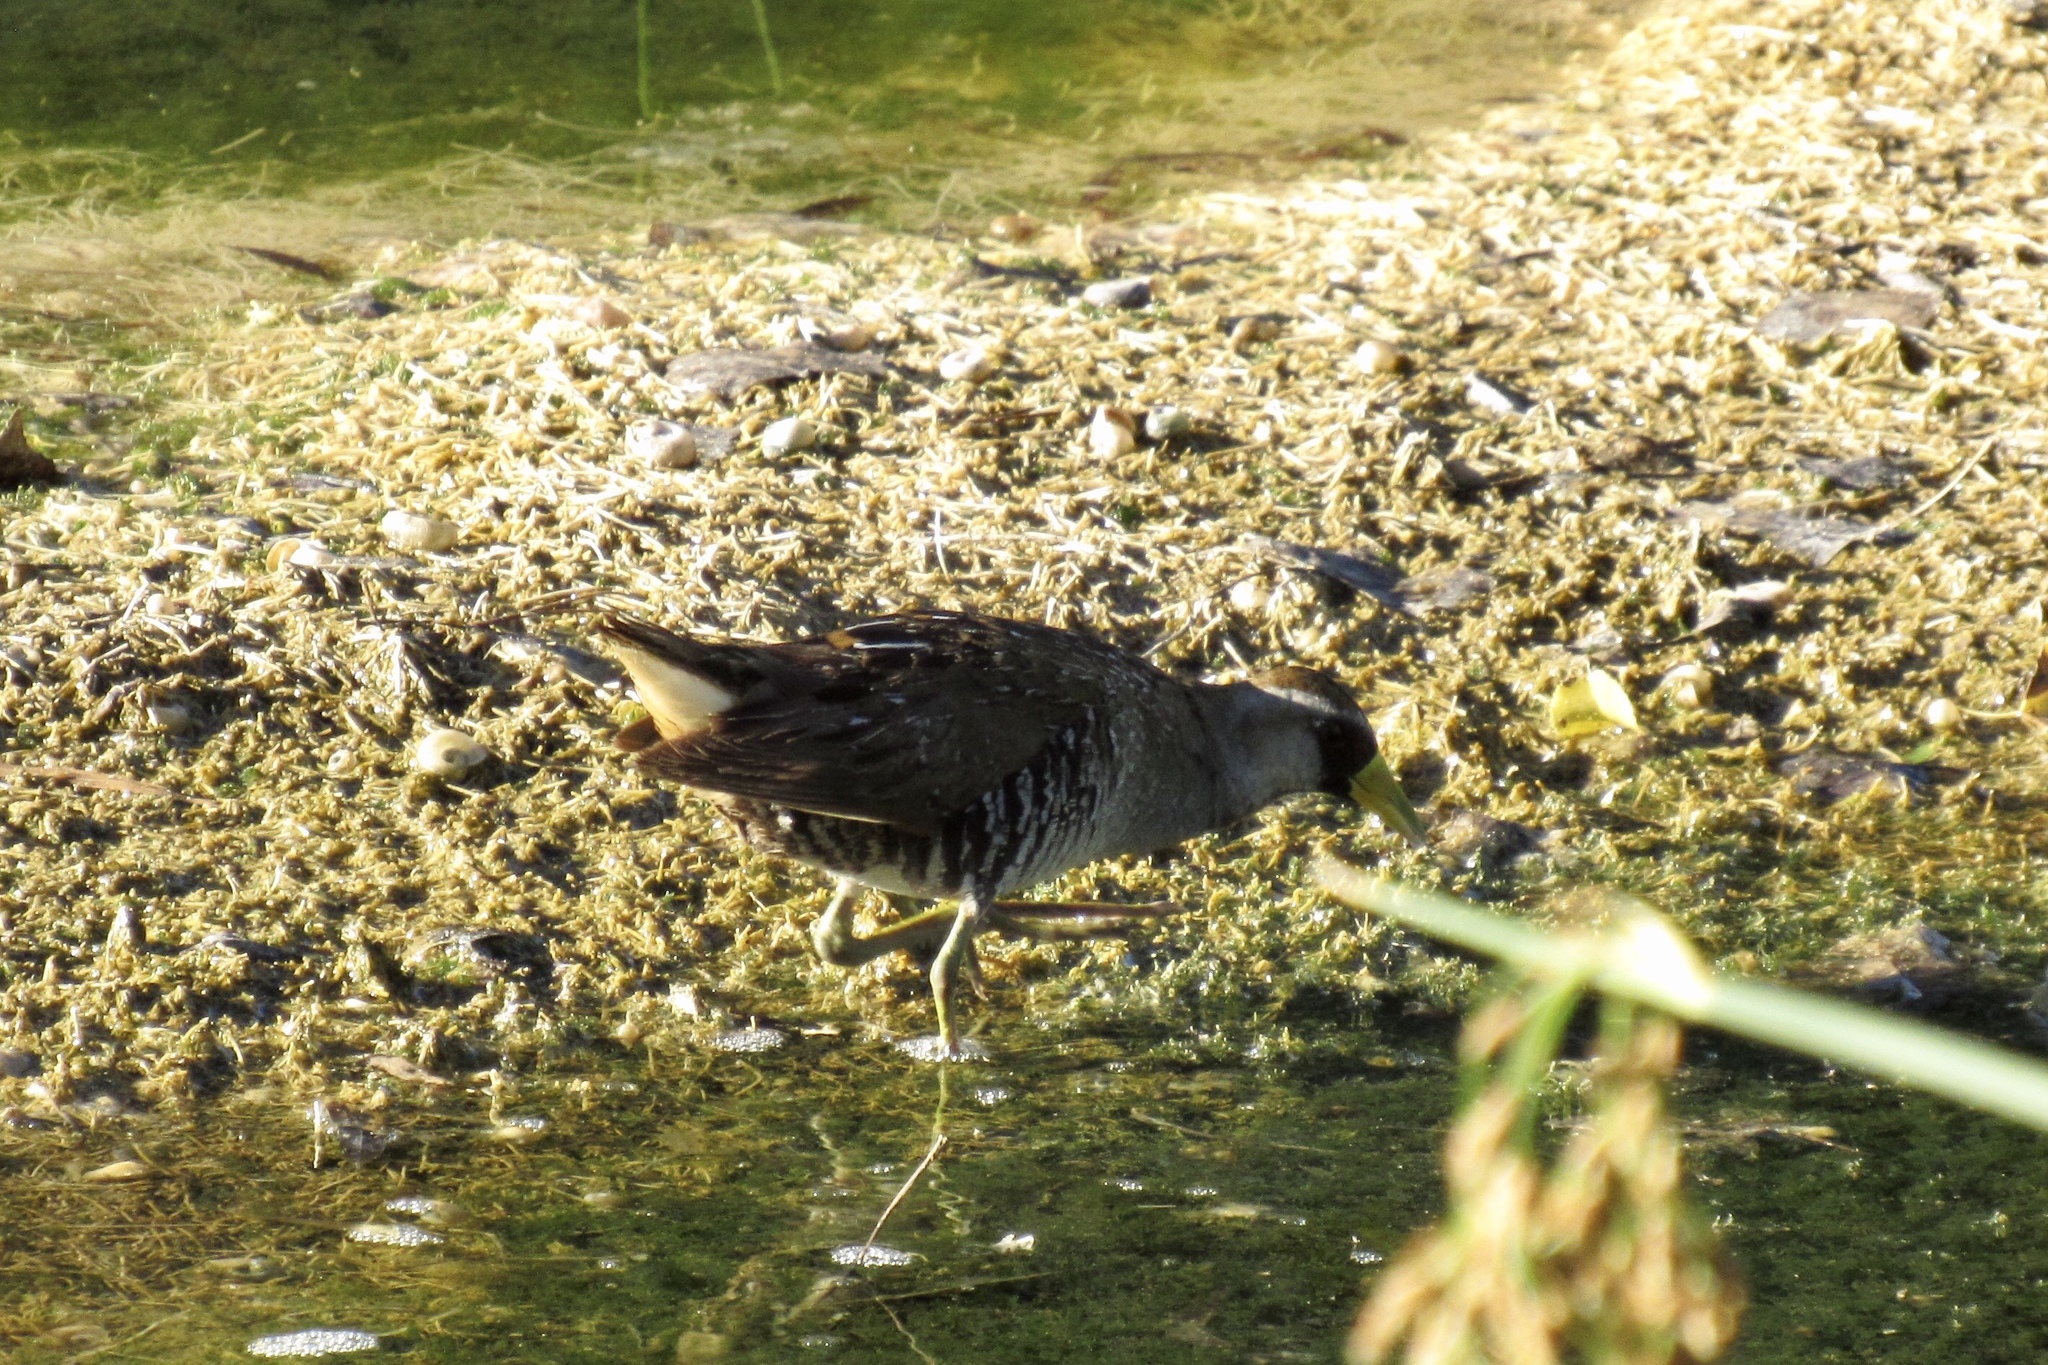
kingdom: Animalia
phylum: Chordata
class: Aves
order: Gruiformes
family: Rallidae
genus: Porzana
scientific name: Porzana carolina
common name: Sora
